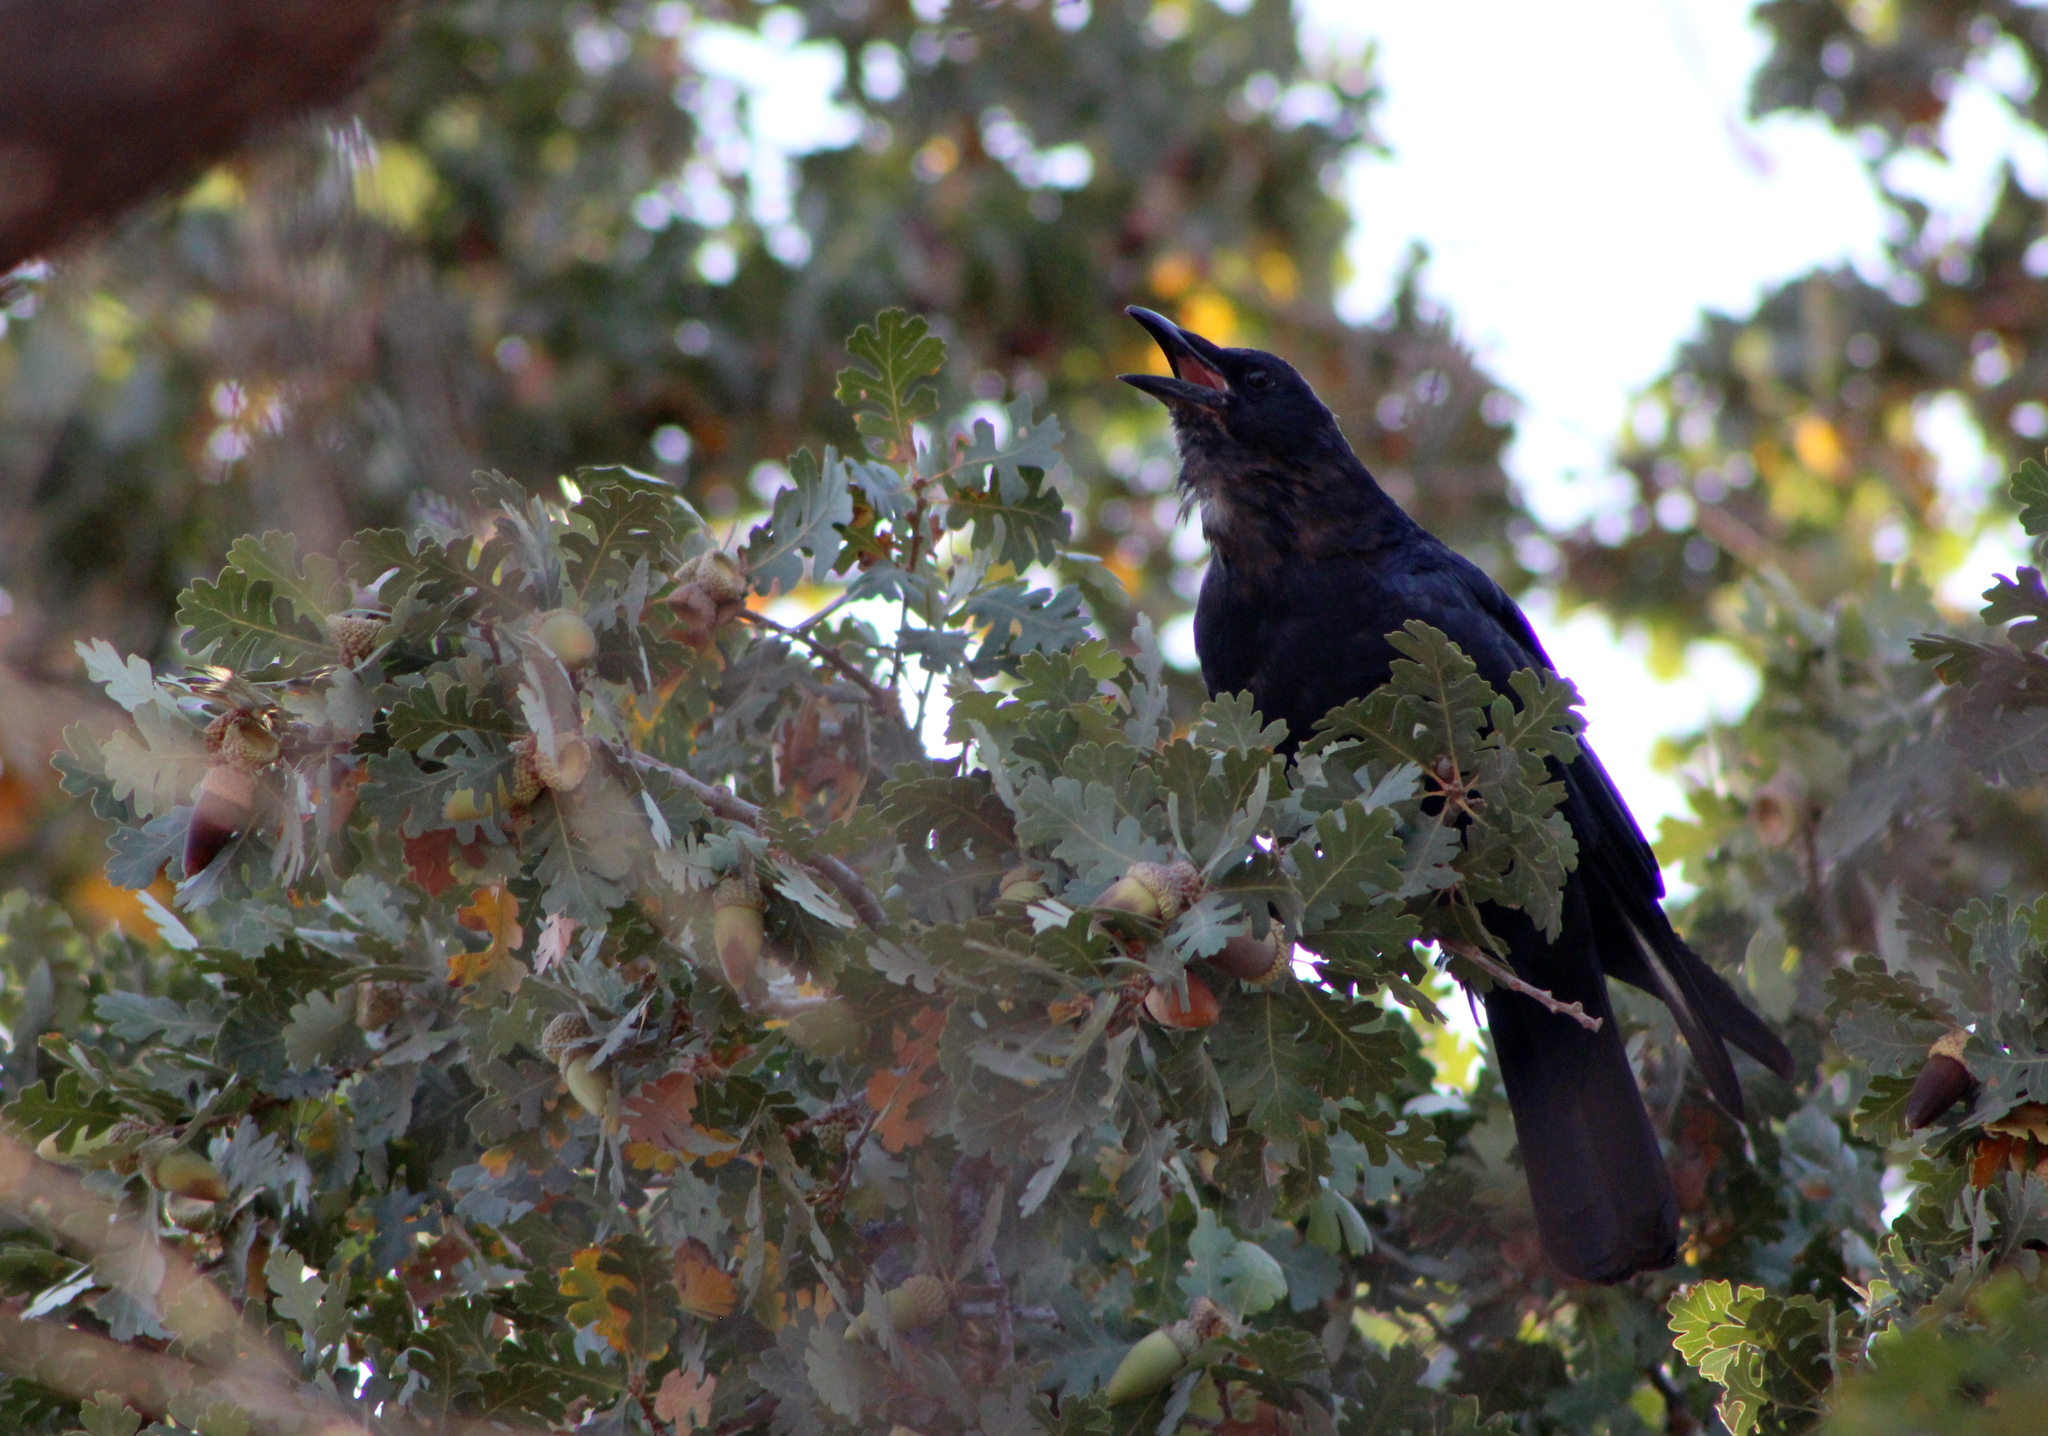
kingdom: Animalia
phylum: Chordata
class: Aves
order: Passeriformes
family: Corvidae
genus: Corvus
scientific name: Corvus brachyrhynchos
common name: American crow
